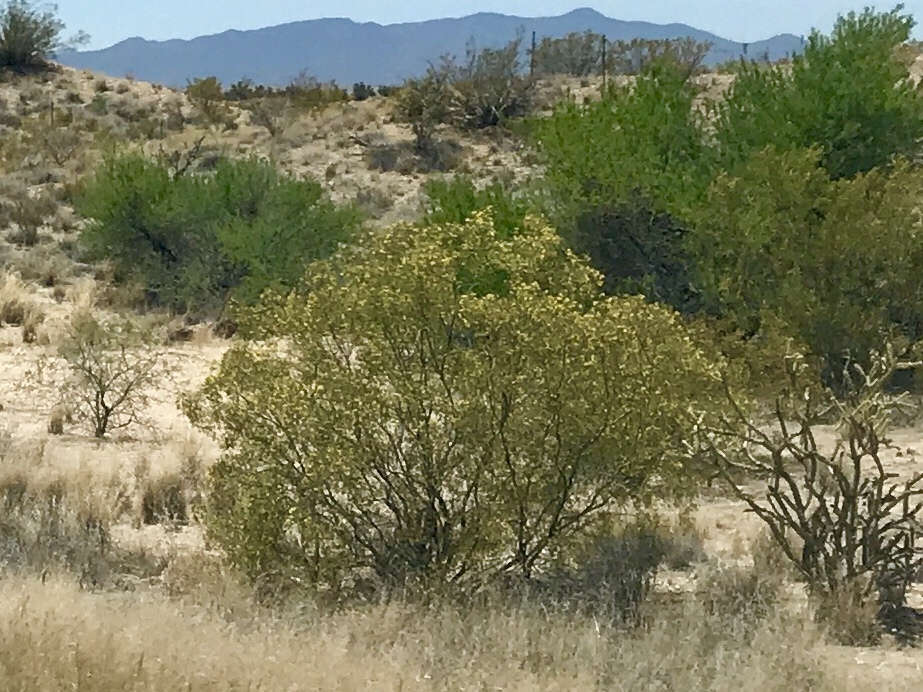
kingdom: Plantae
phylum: Tracheophyta
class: Magnoliopsida
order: Zygophyllales
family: Zygophyllaceae
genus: Larrea
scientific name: Larrea tridentata
